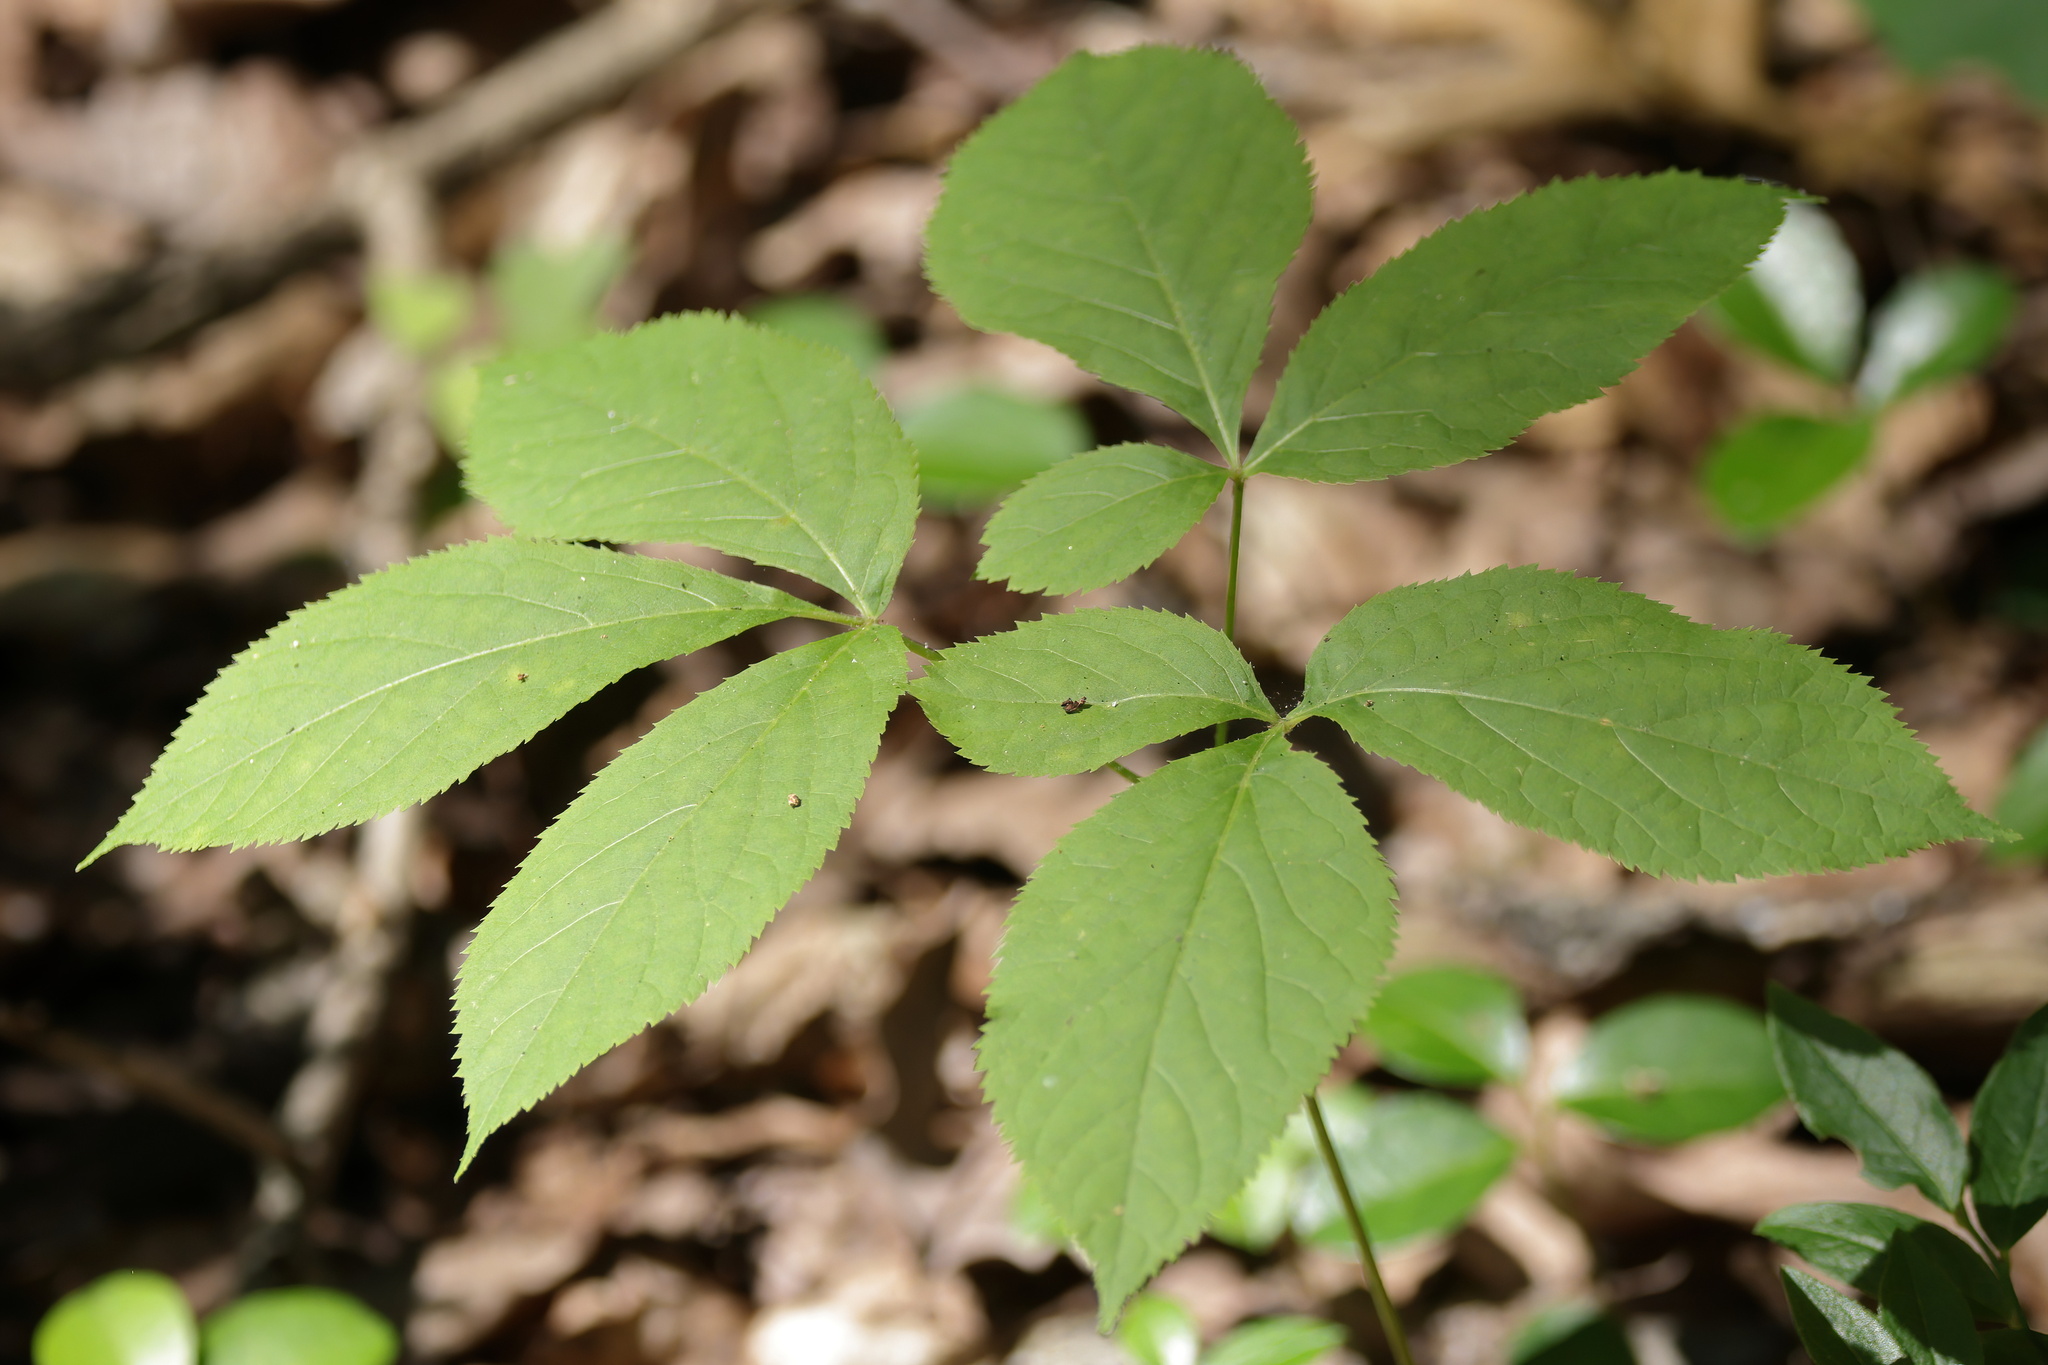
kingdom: Plantae
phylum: Tracheophyta
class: Magnoliopsida
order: Apiales
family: Araliaceae
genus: Aralia
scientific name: Aralia nudicaulis
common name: Wild sarsaparilla
